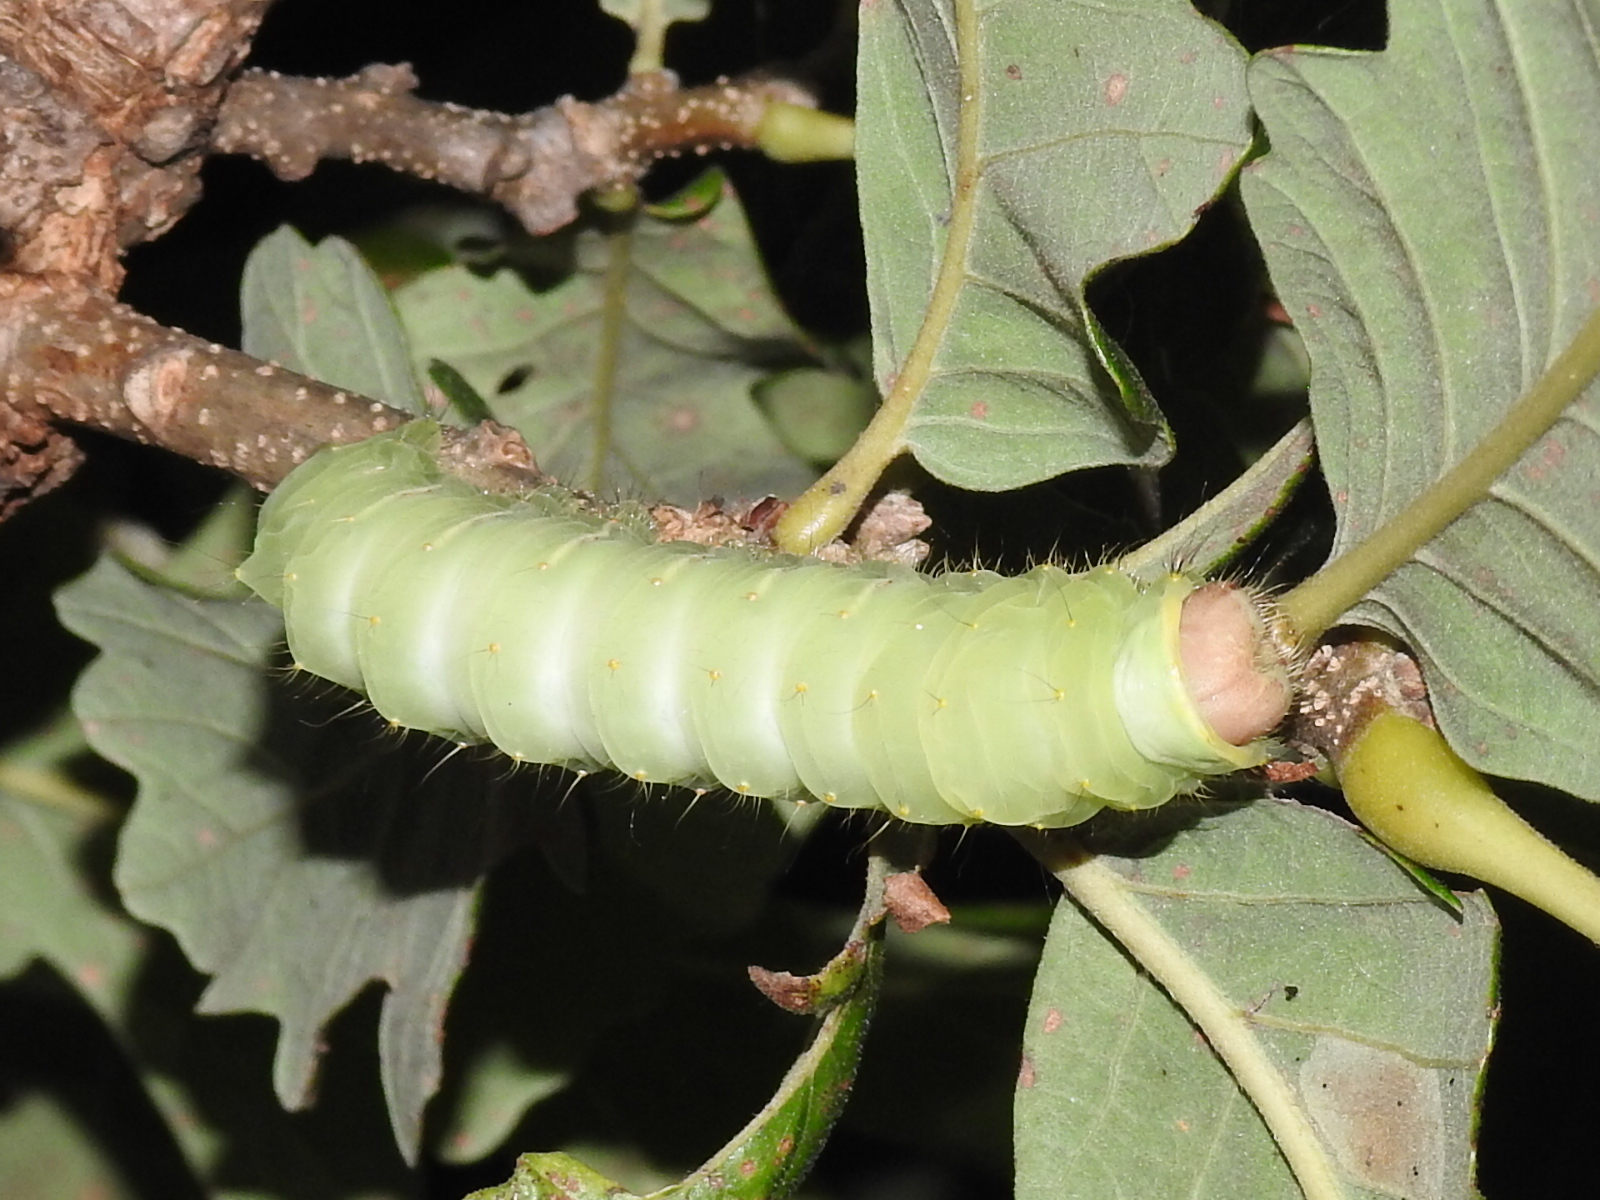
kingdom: Animalia
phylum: Arthropoda
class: Insecta
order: Lepidoptera
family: Saturniidae
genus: Antheraea
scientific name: Antheraea polyphemus
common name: Polyphemus moth
